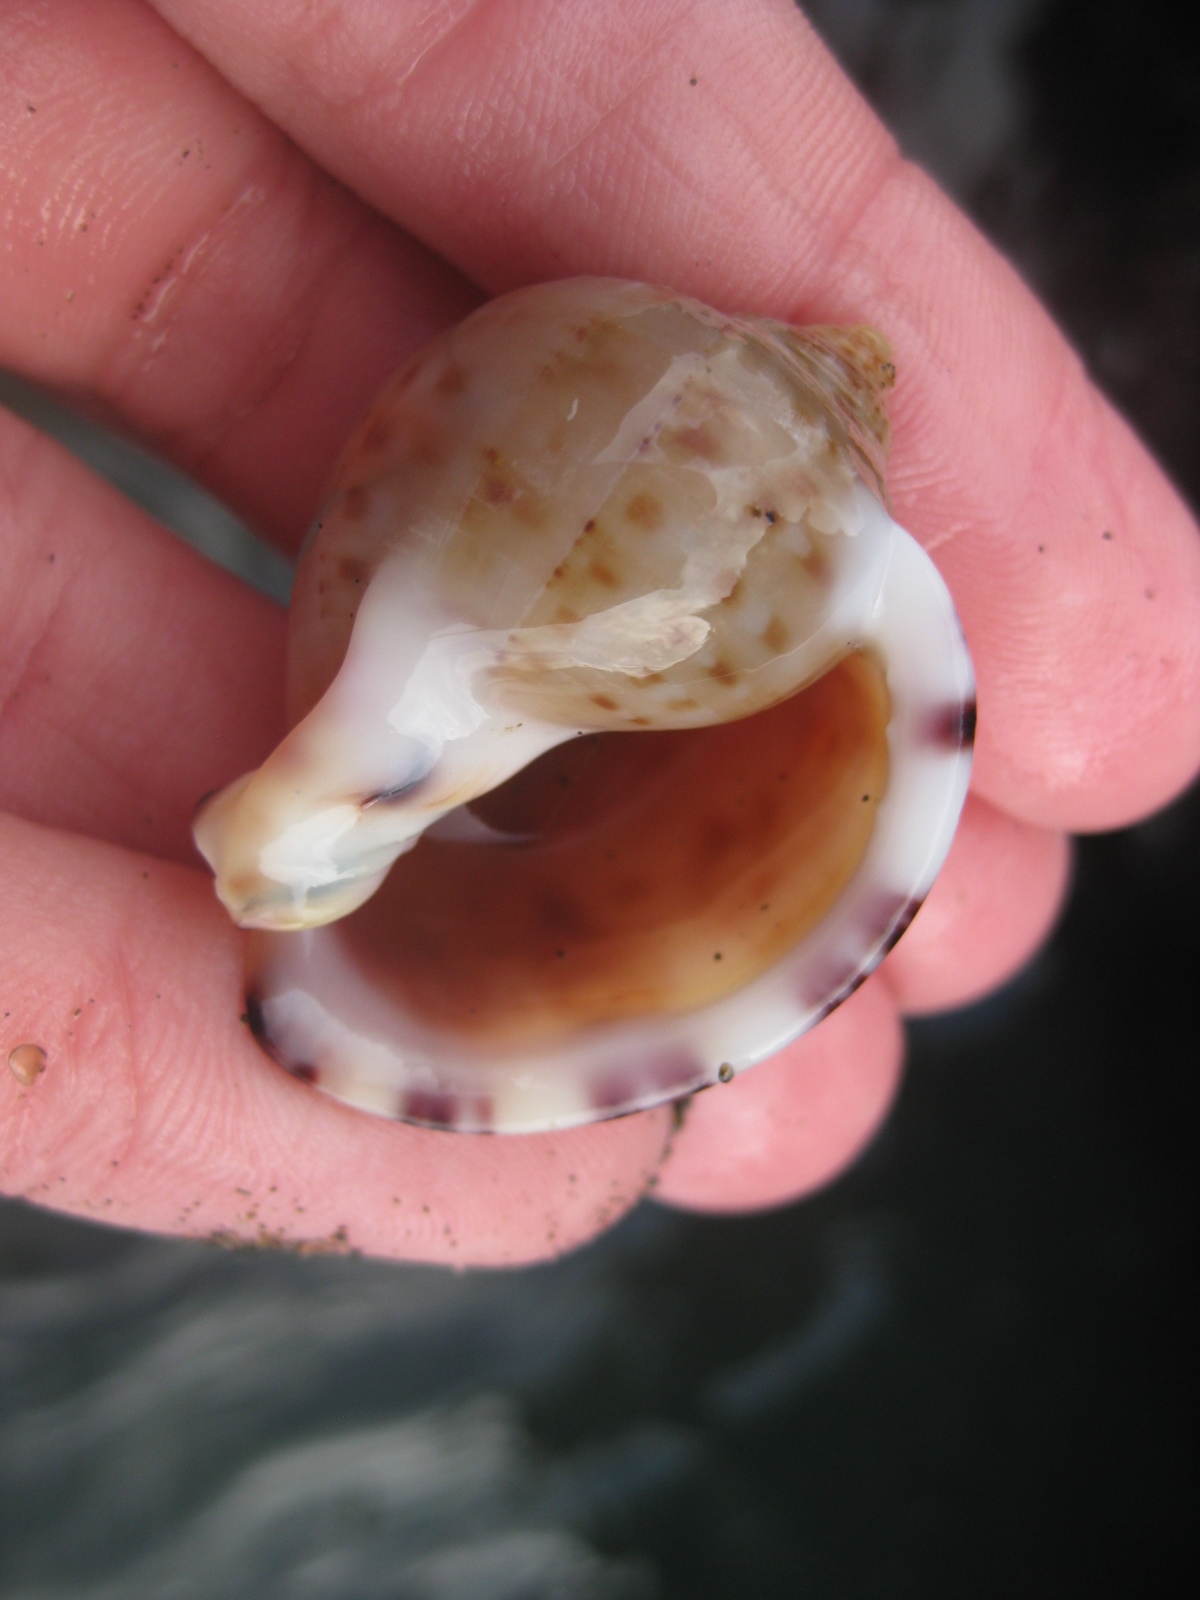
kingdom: Animalia
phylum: Mollusca
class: Gastropoda
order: Littorinimorpha
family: Cassidae
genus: Semicassis
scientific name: Semicassis pyrum
